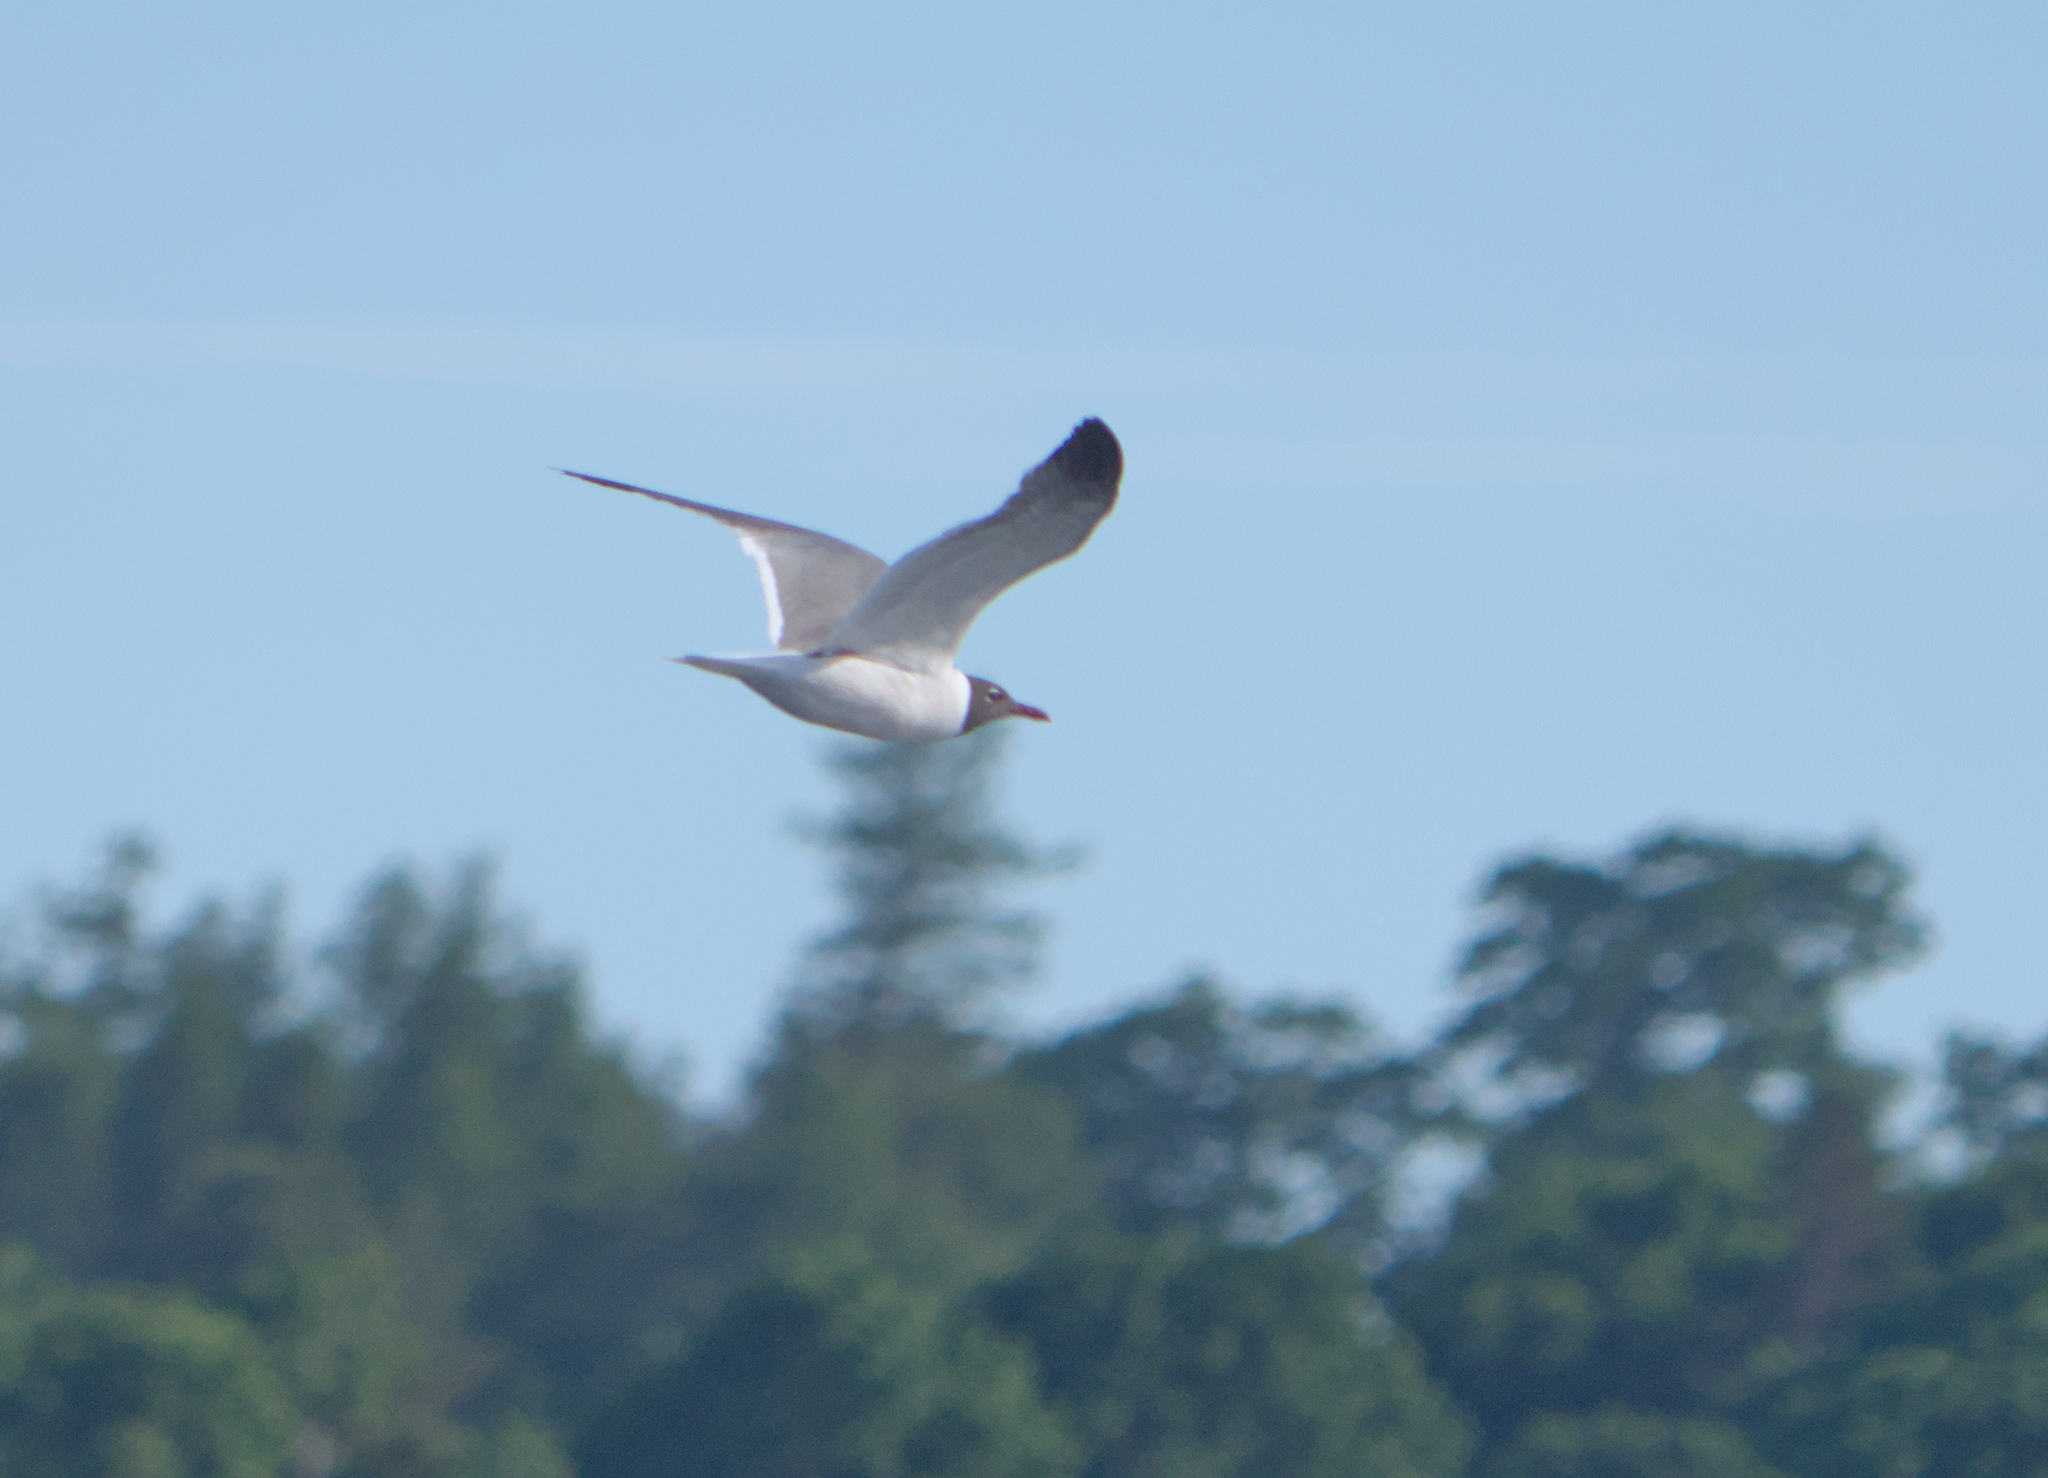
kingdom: Animalia
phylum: Chordata
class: Aves
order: Charadriiformes
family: Laridae
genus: Leucophaeus
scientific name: Leucophaeus atricilla
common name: Laughing gull
